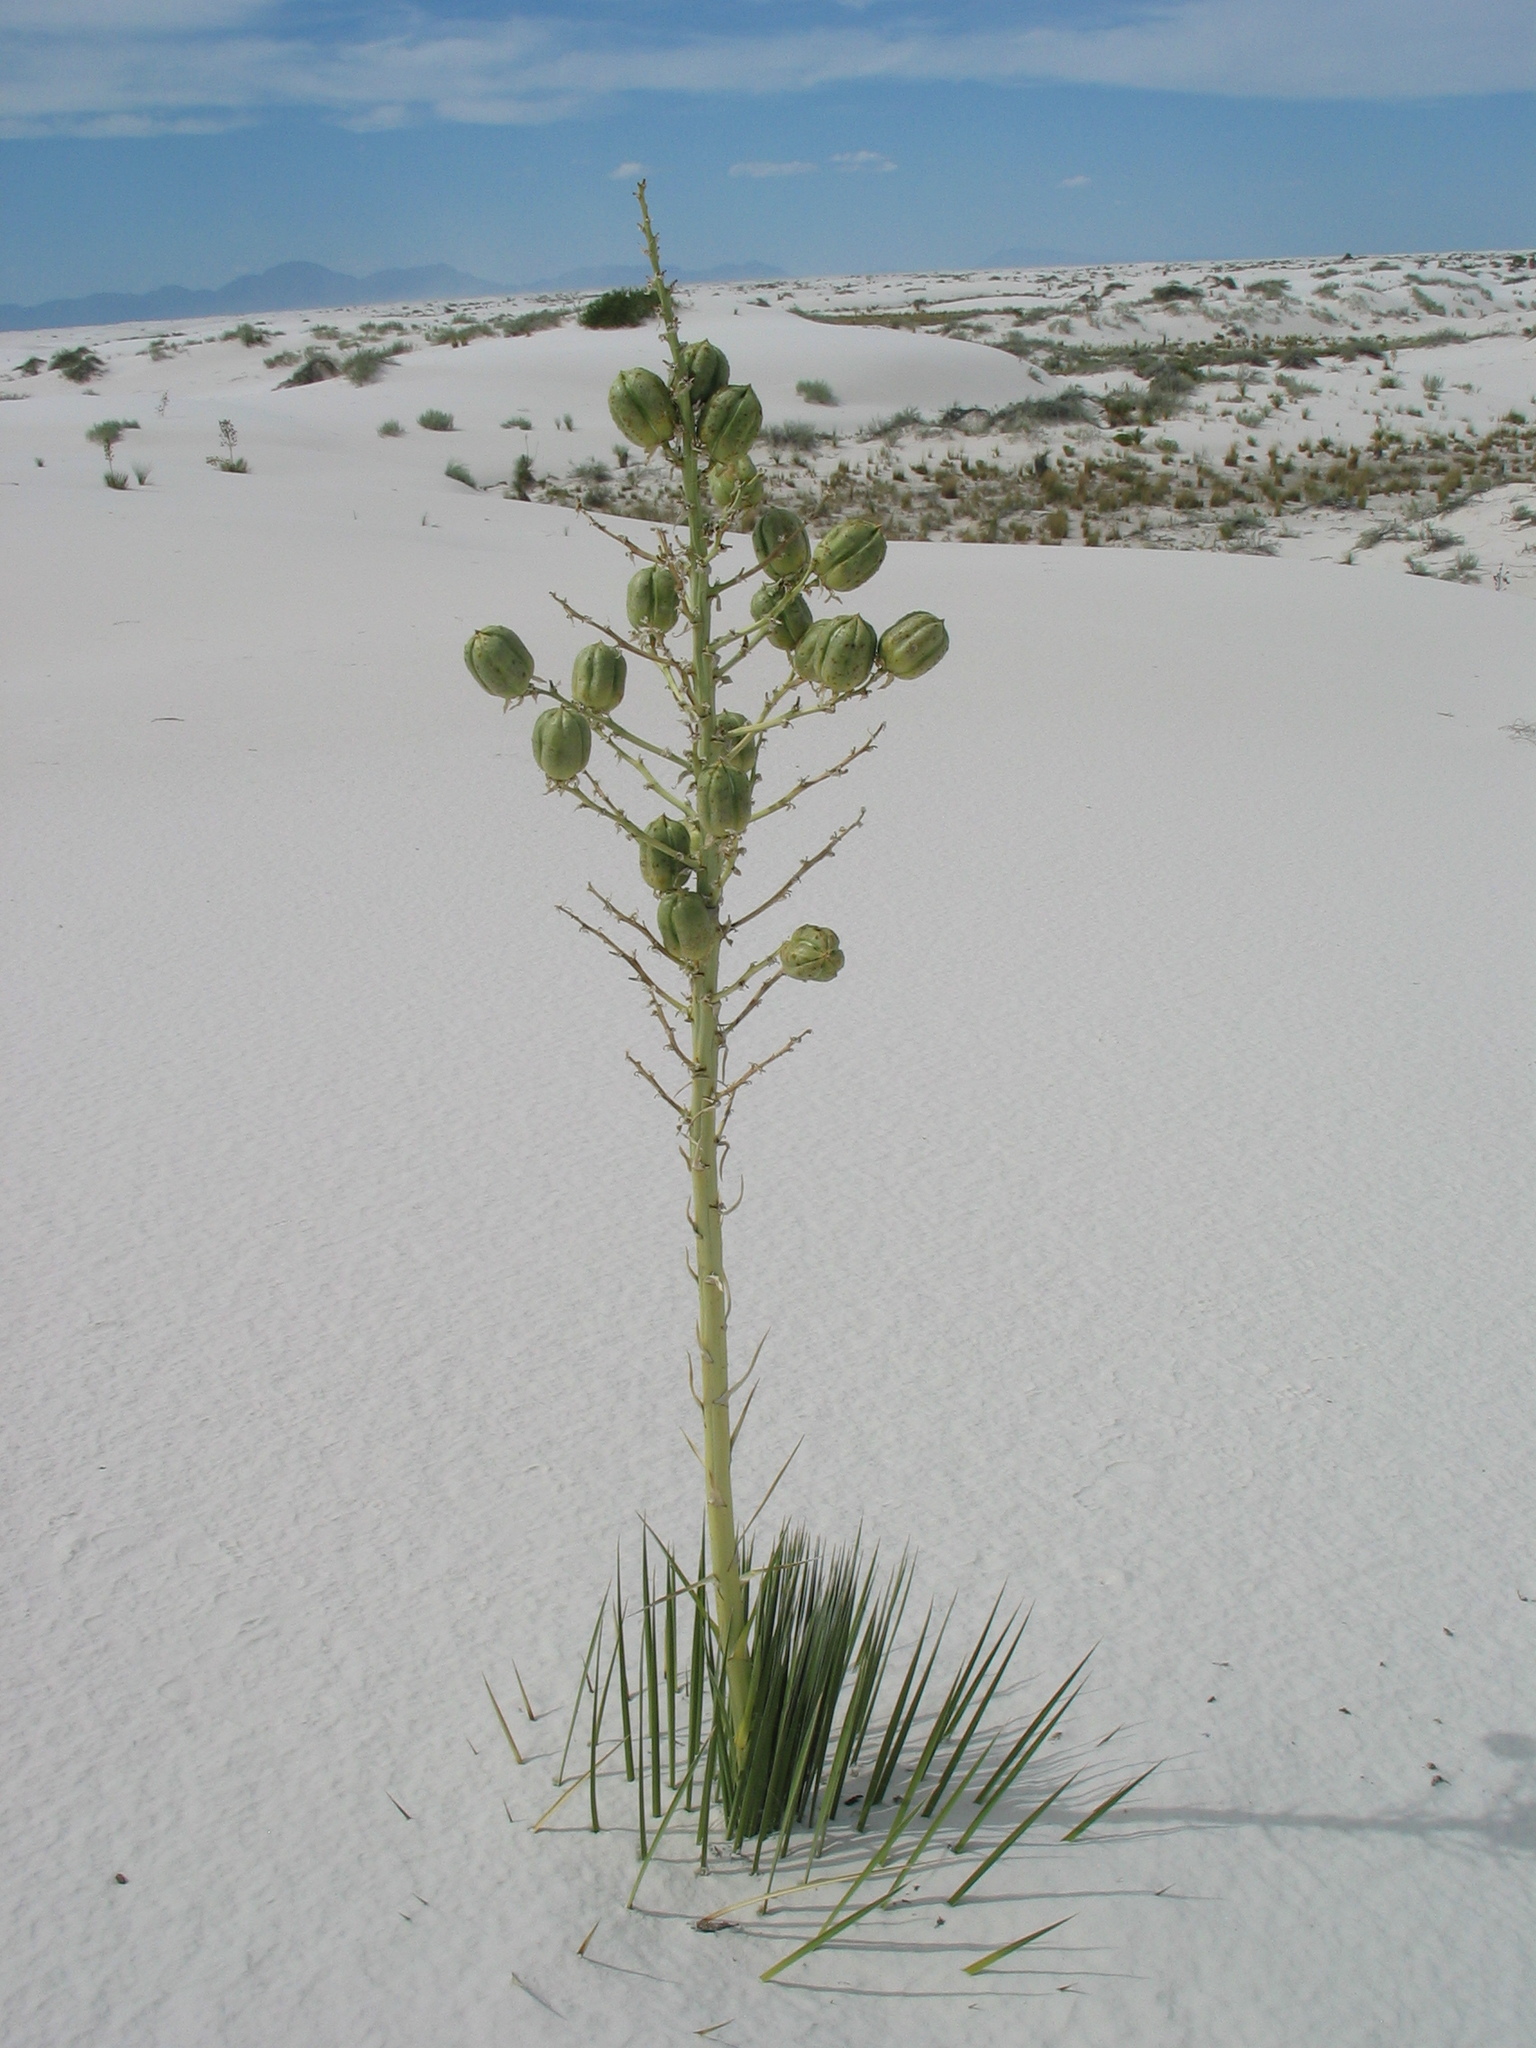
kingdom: Plantae
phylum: Tracheophyta
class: Liliopsida
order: Asparagales
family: Asparagaceae
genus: Yucca
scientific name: Yucca elata
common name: Palmella
